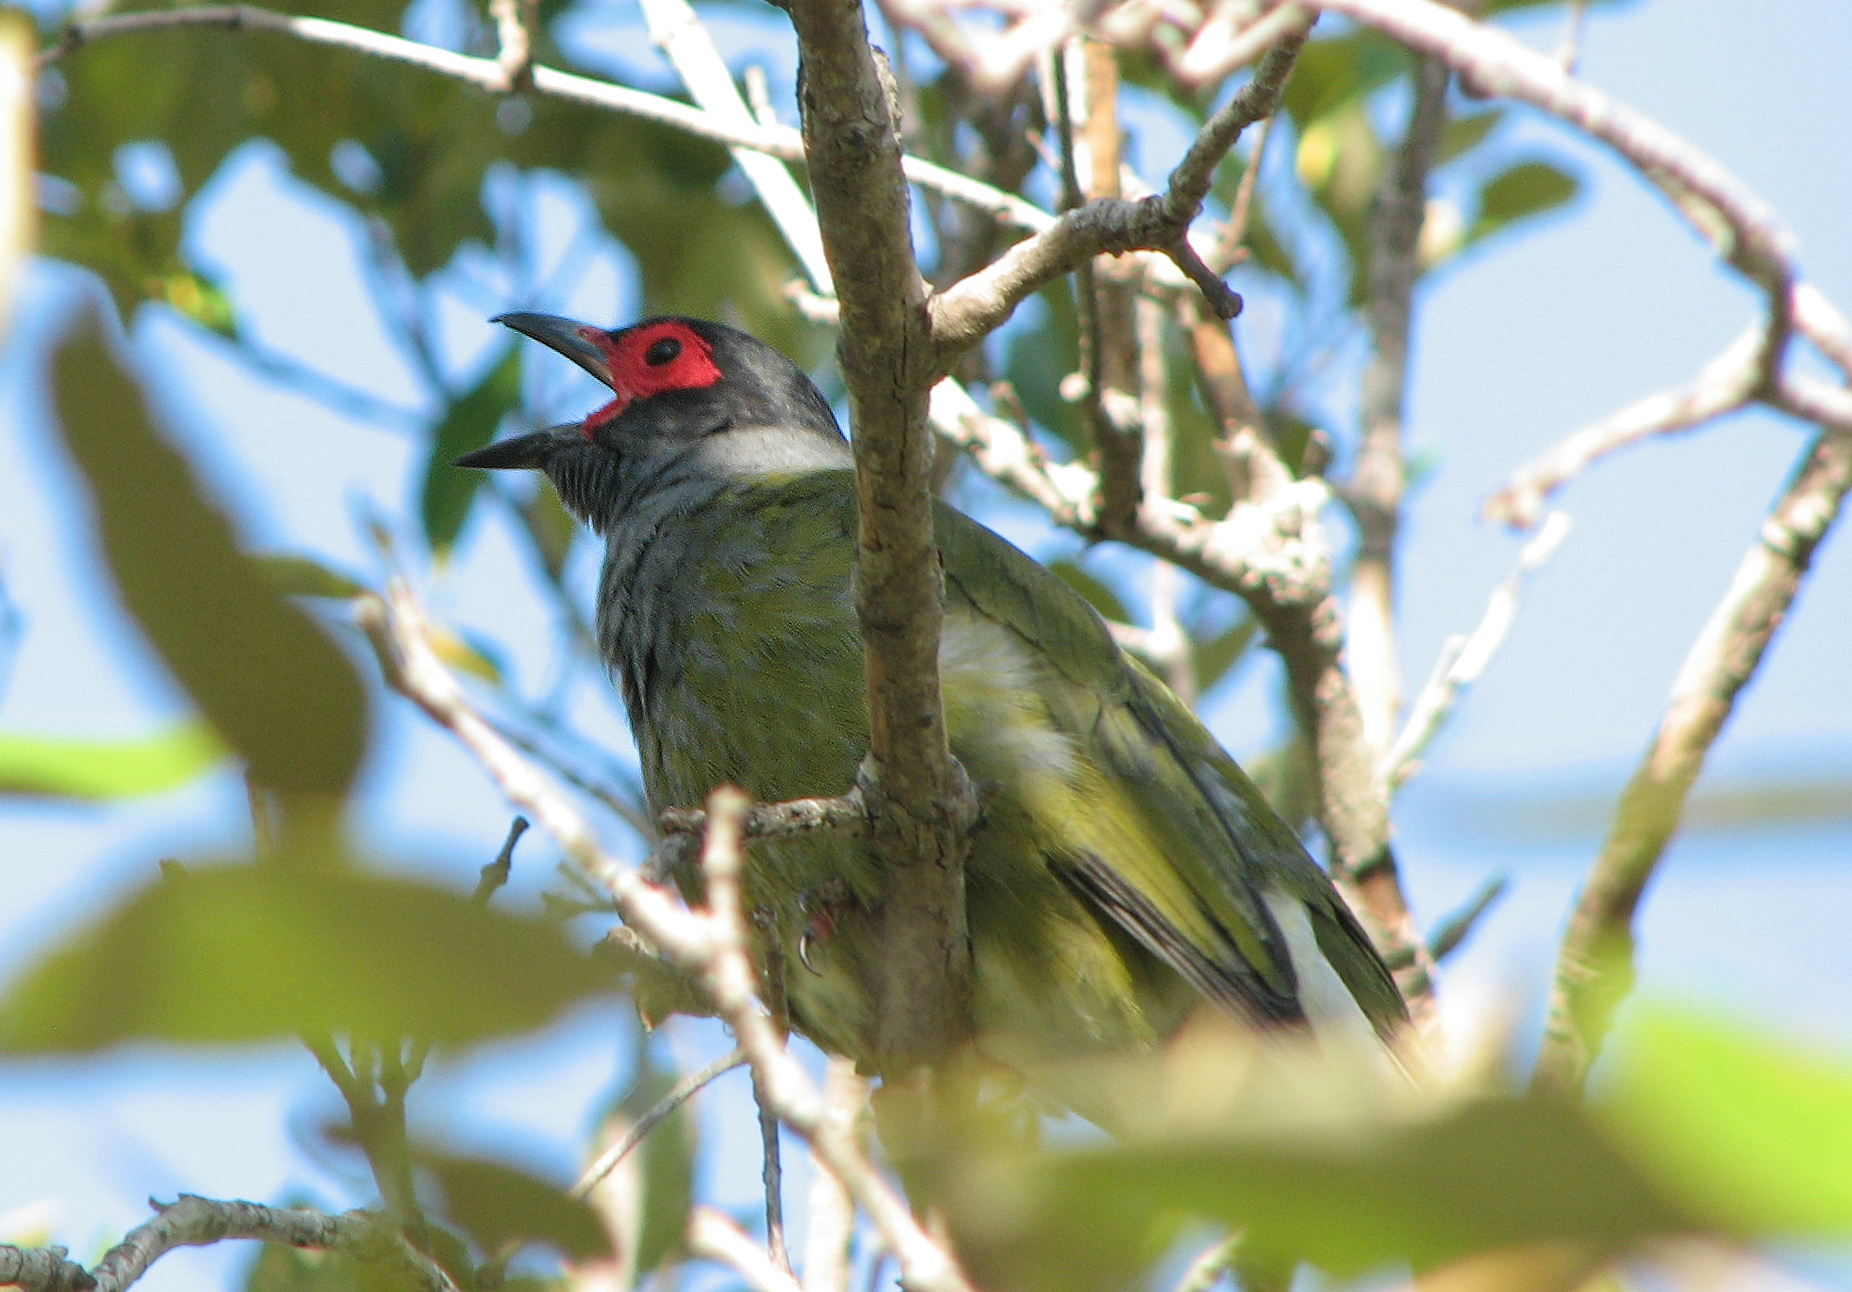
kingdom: Animalia
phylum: Chordata
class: Aves
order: Passeriformes
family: Oriolidae
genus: Sphecotheres
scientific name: Sphecotheres vieilloti
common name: Australasian figbird
